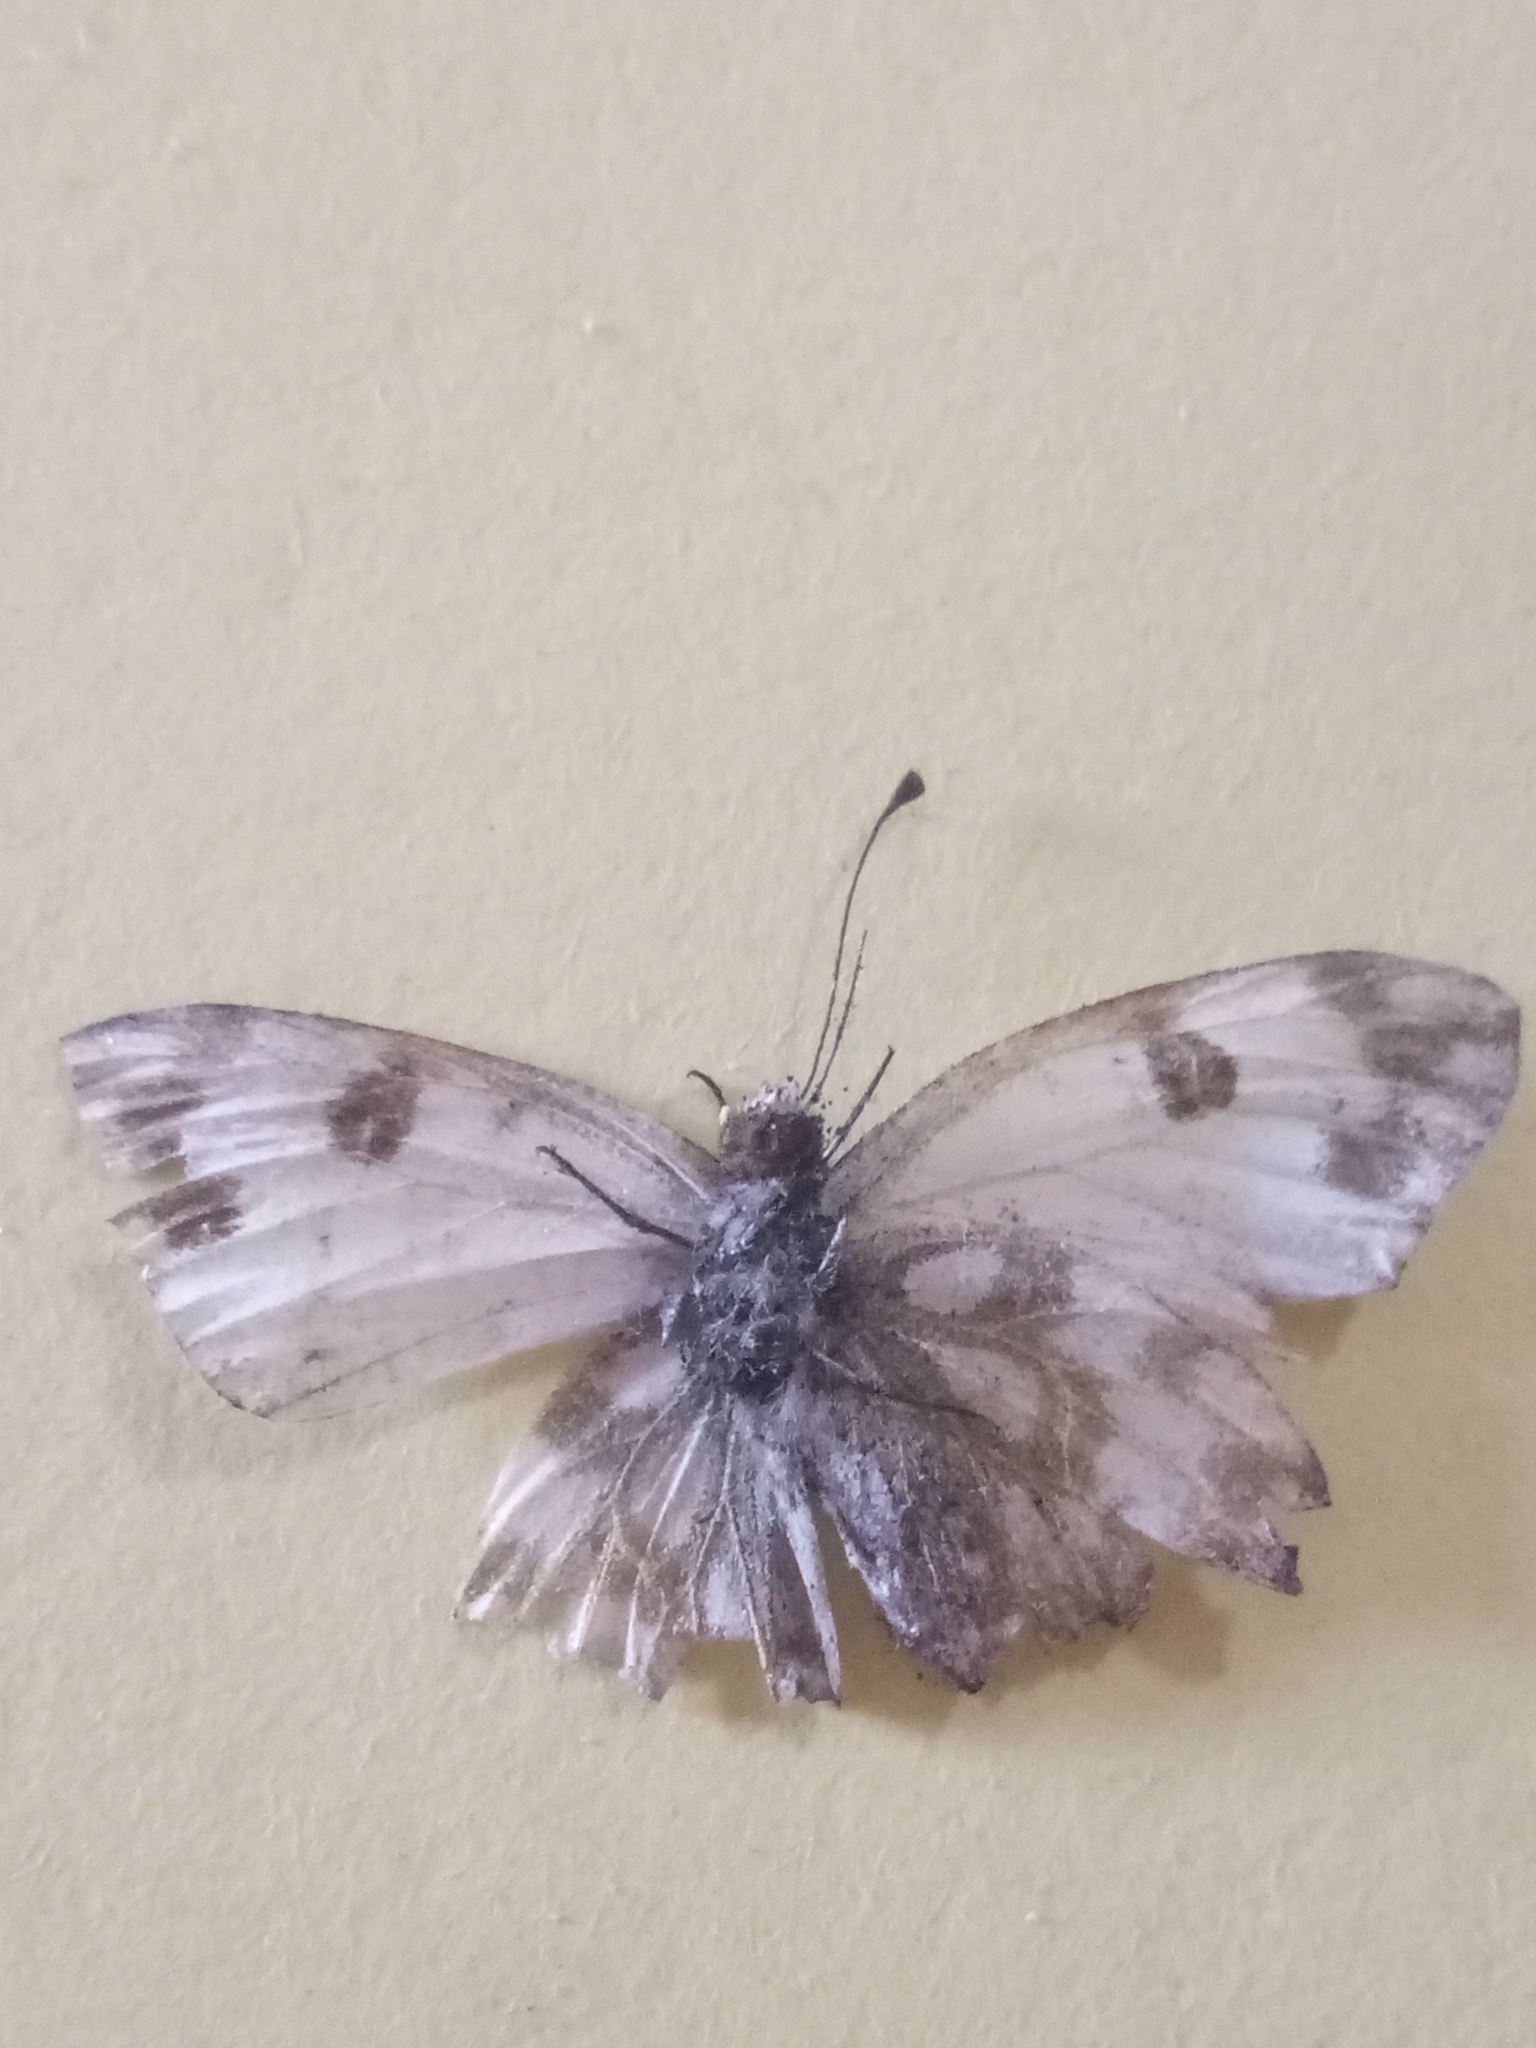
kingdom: Animalia
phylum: Arthropoda
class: Insecta
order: Lepidoptera
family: Pieridae
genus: Pontia
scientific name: Pontia glauconome
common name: Desert bath white
